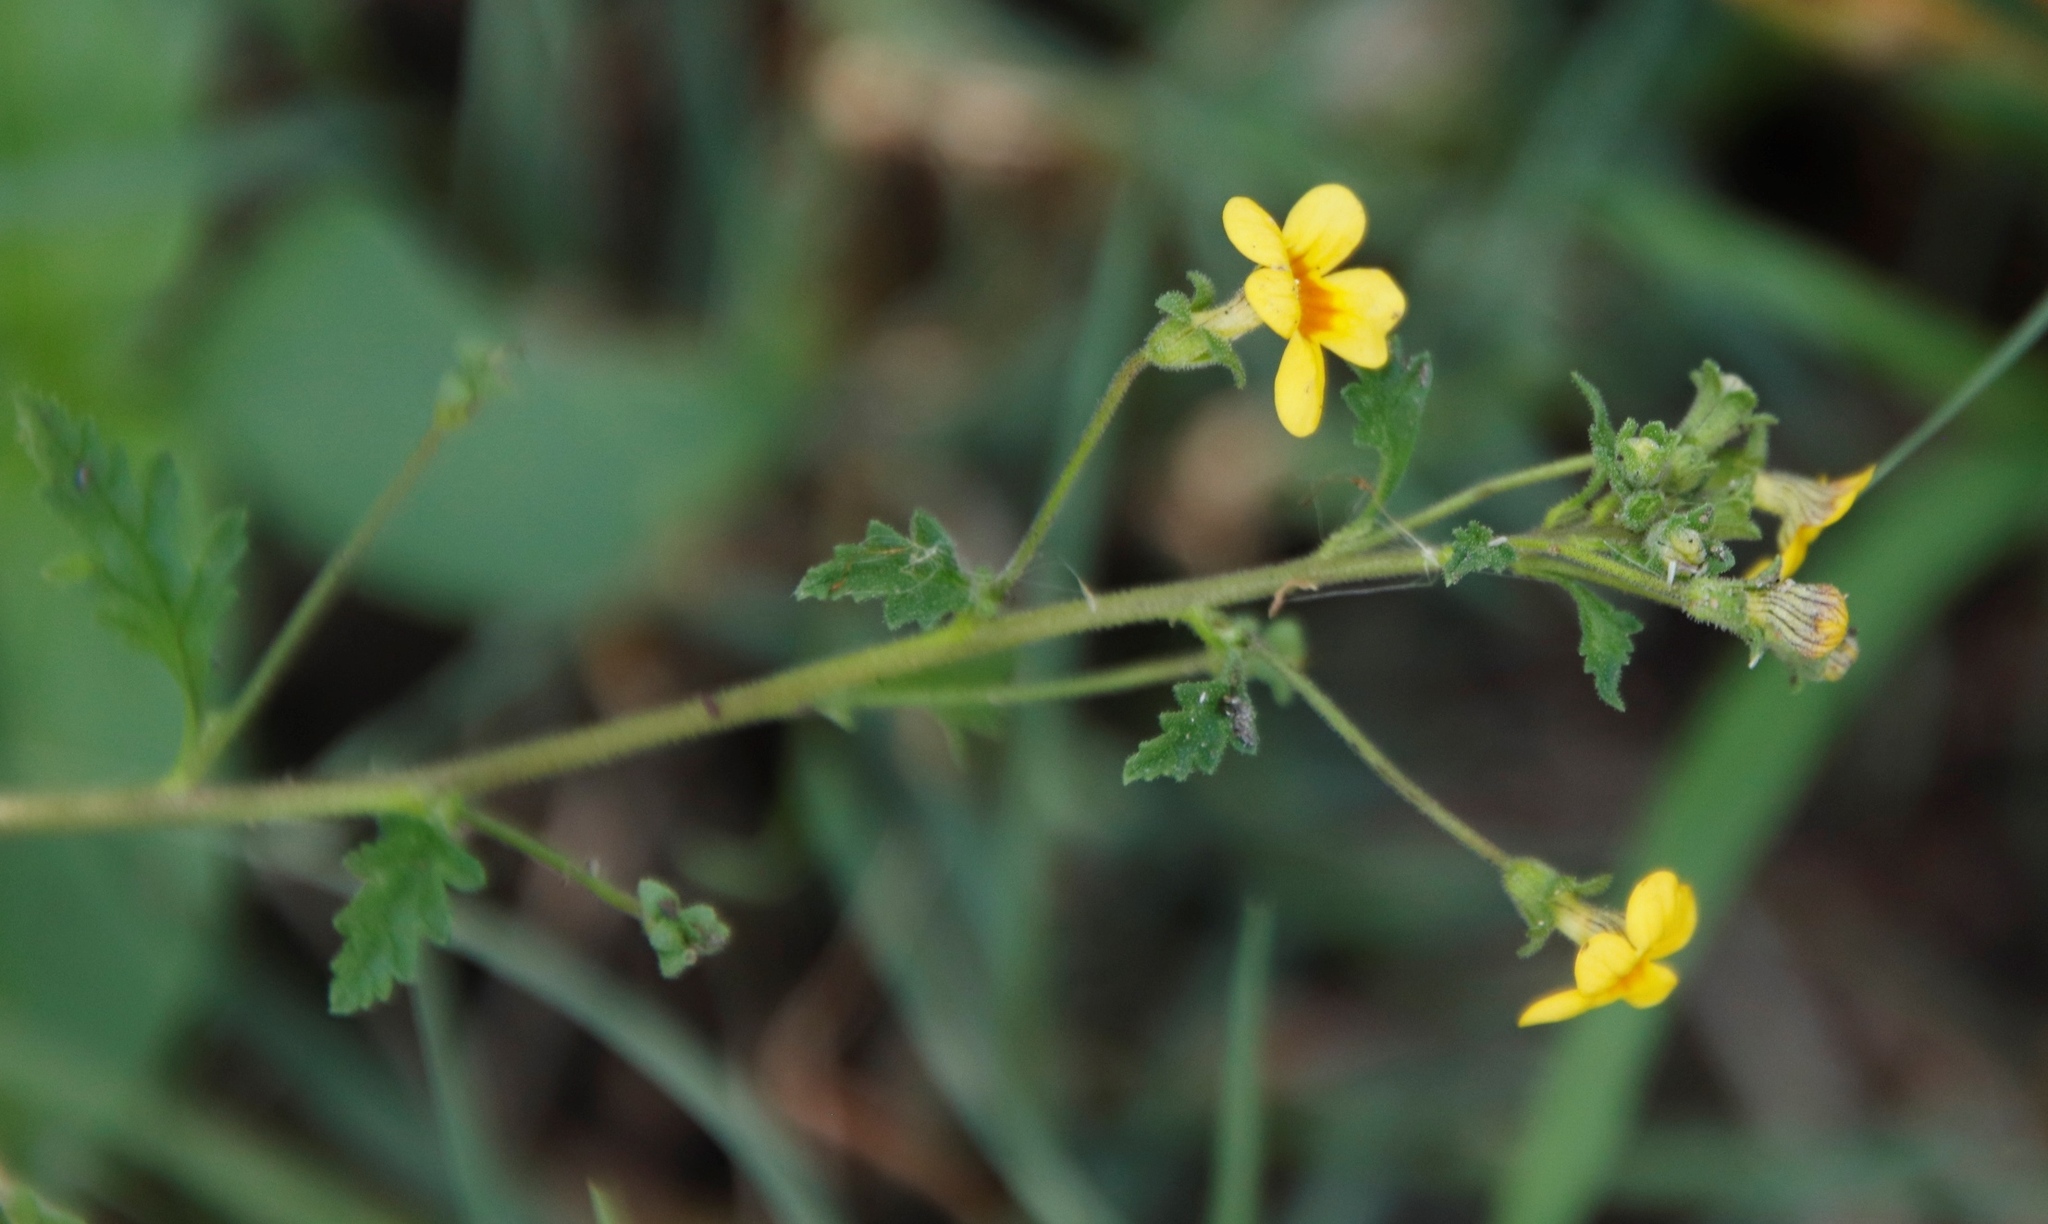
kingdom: Plantae
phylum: Tracheophyta
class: Magnoliopsida
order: Lamiales
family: Scrophulariaceae
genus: Jamesbrittenia
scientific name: Jamesbrittenia micrantha
